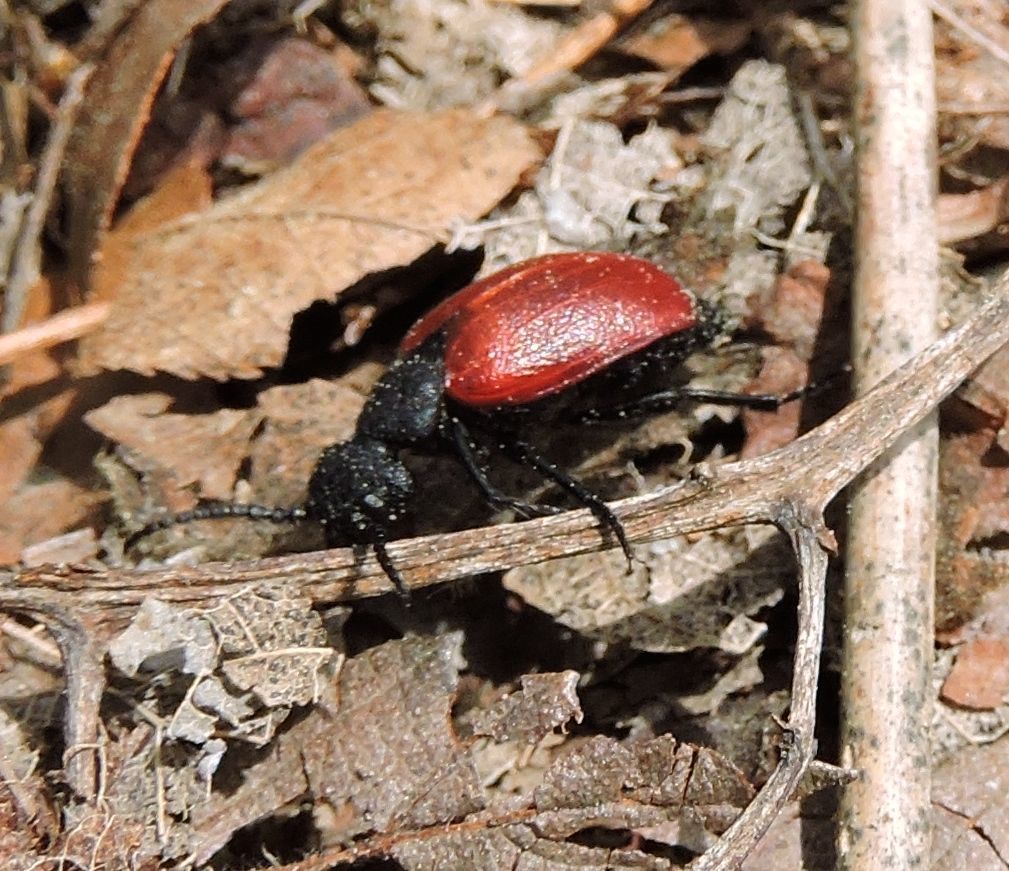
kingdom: Animalia
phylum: Arthropoda
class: Insecta
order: Coleoptera
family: Meloidae
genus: Tricrania
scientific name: Tricrania sanguinipennis
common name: Blood-winged blister beetle
